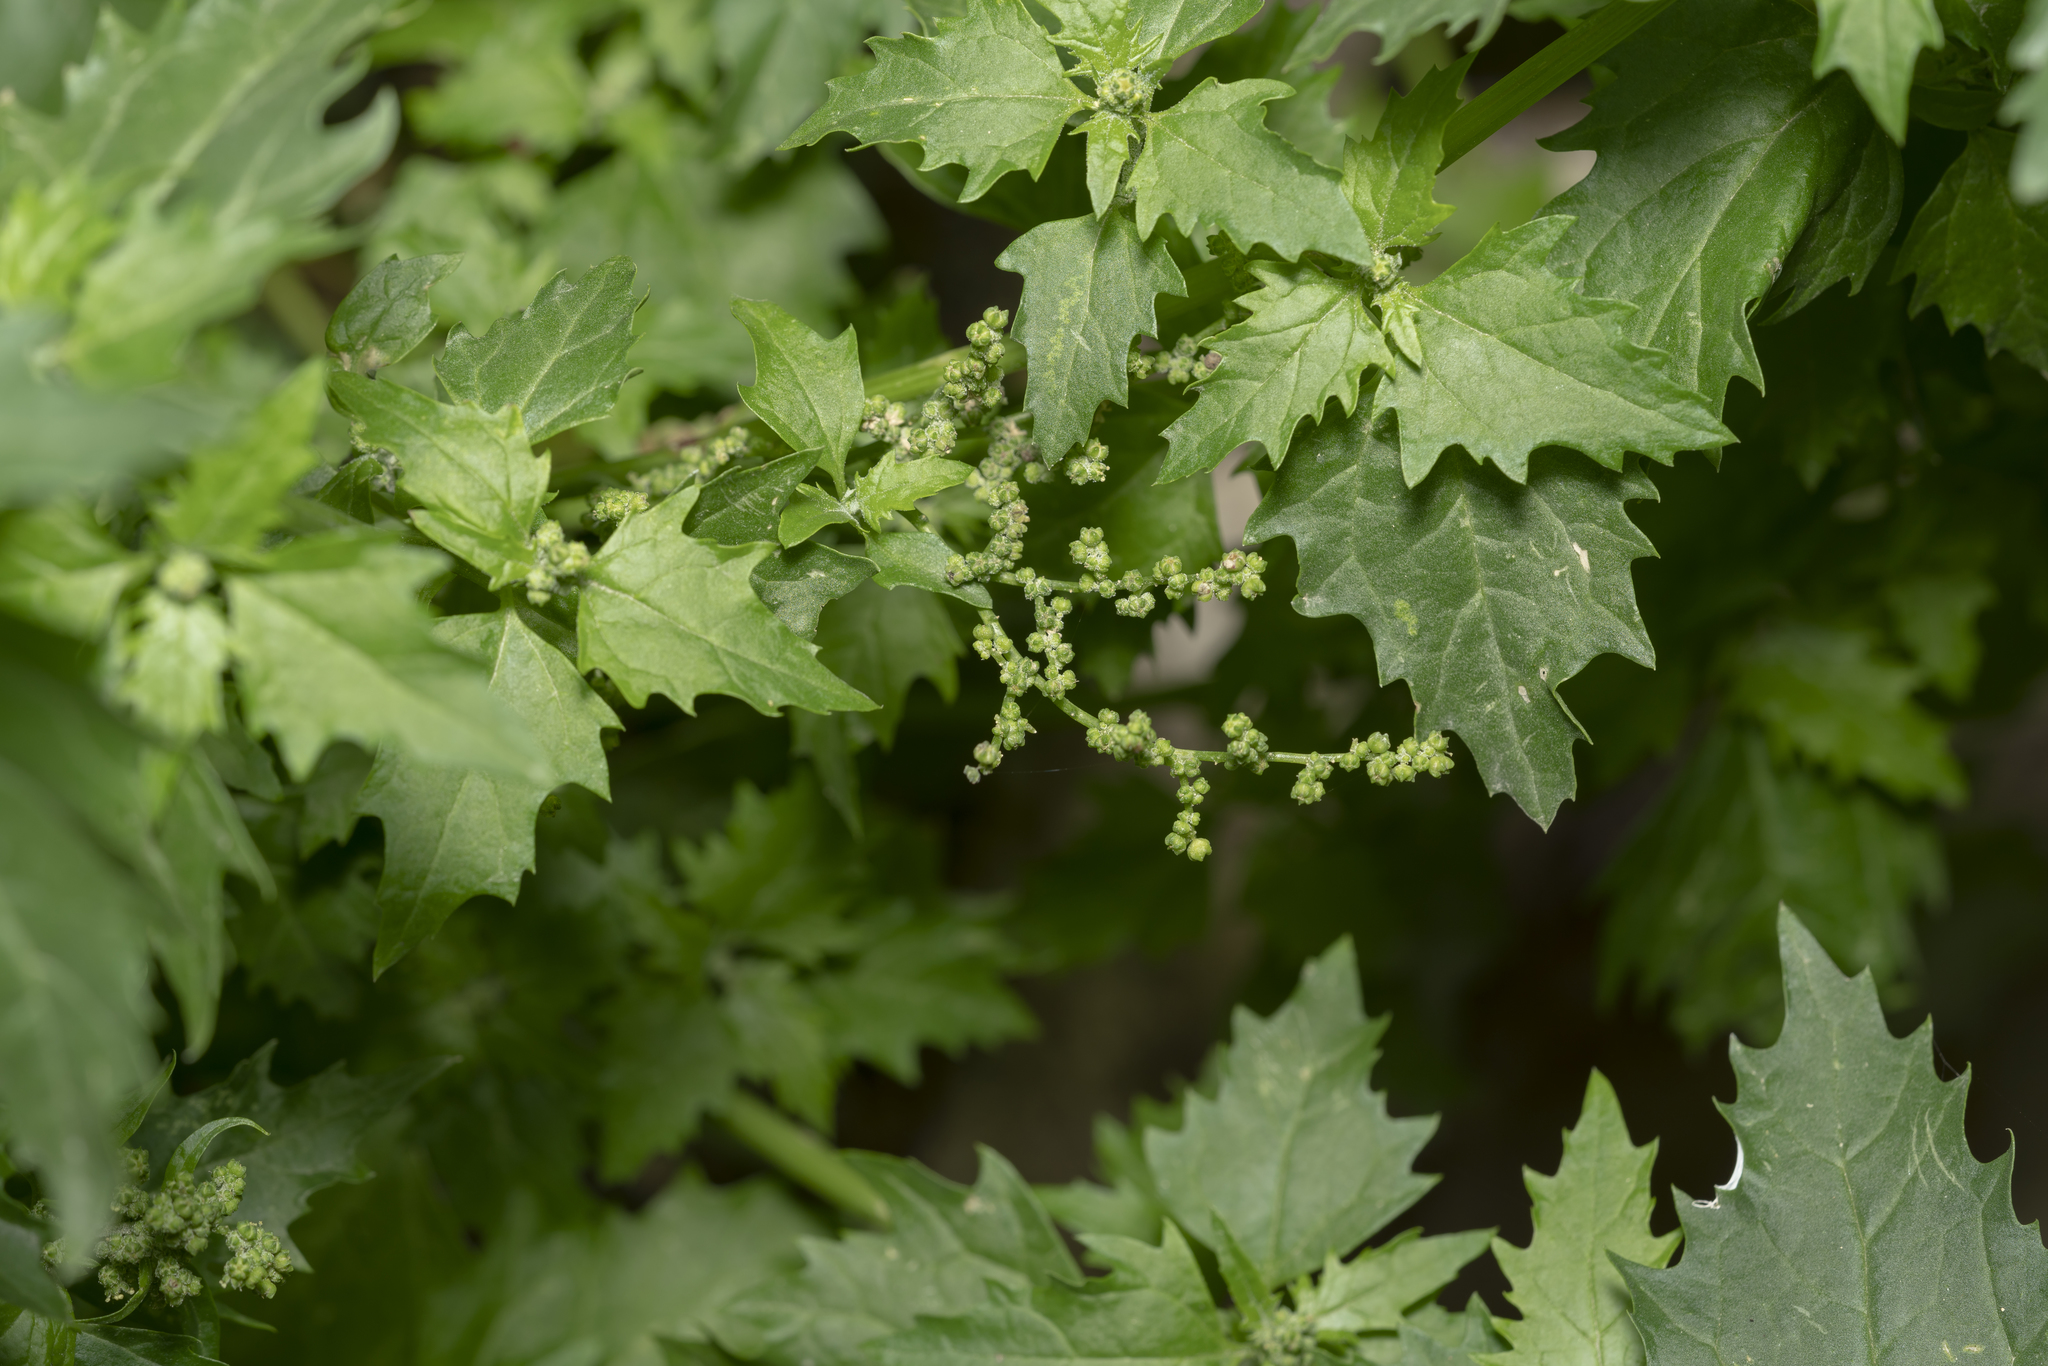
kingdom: Plantae
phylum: Tracheophyta
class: Magnoliopsida
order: Caryophyllales
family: Amaranthaceae
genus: Chenopodiastrum
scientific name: Chenopodiastrum murale
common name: Sowbane
